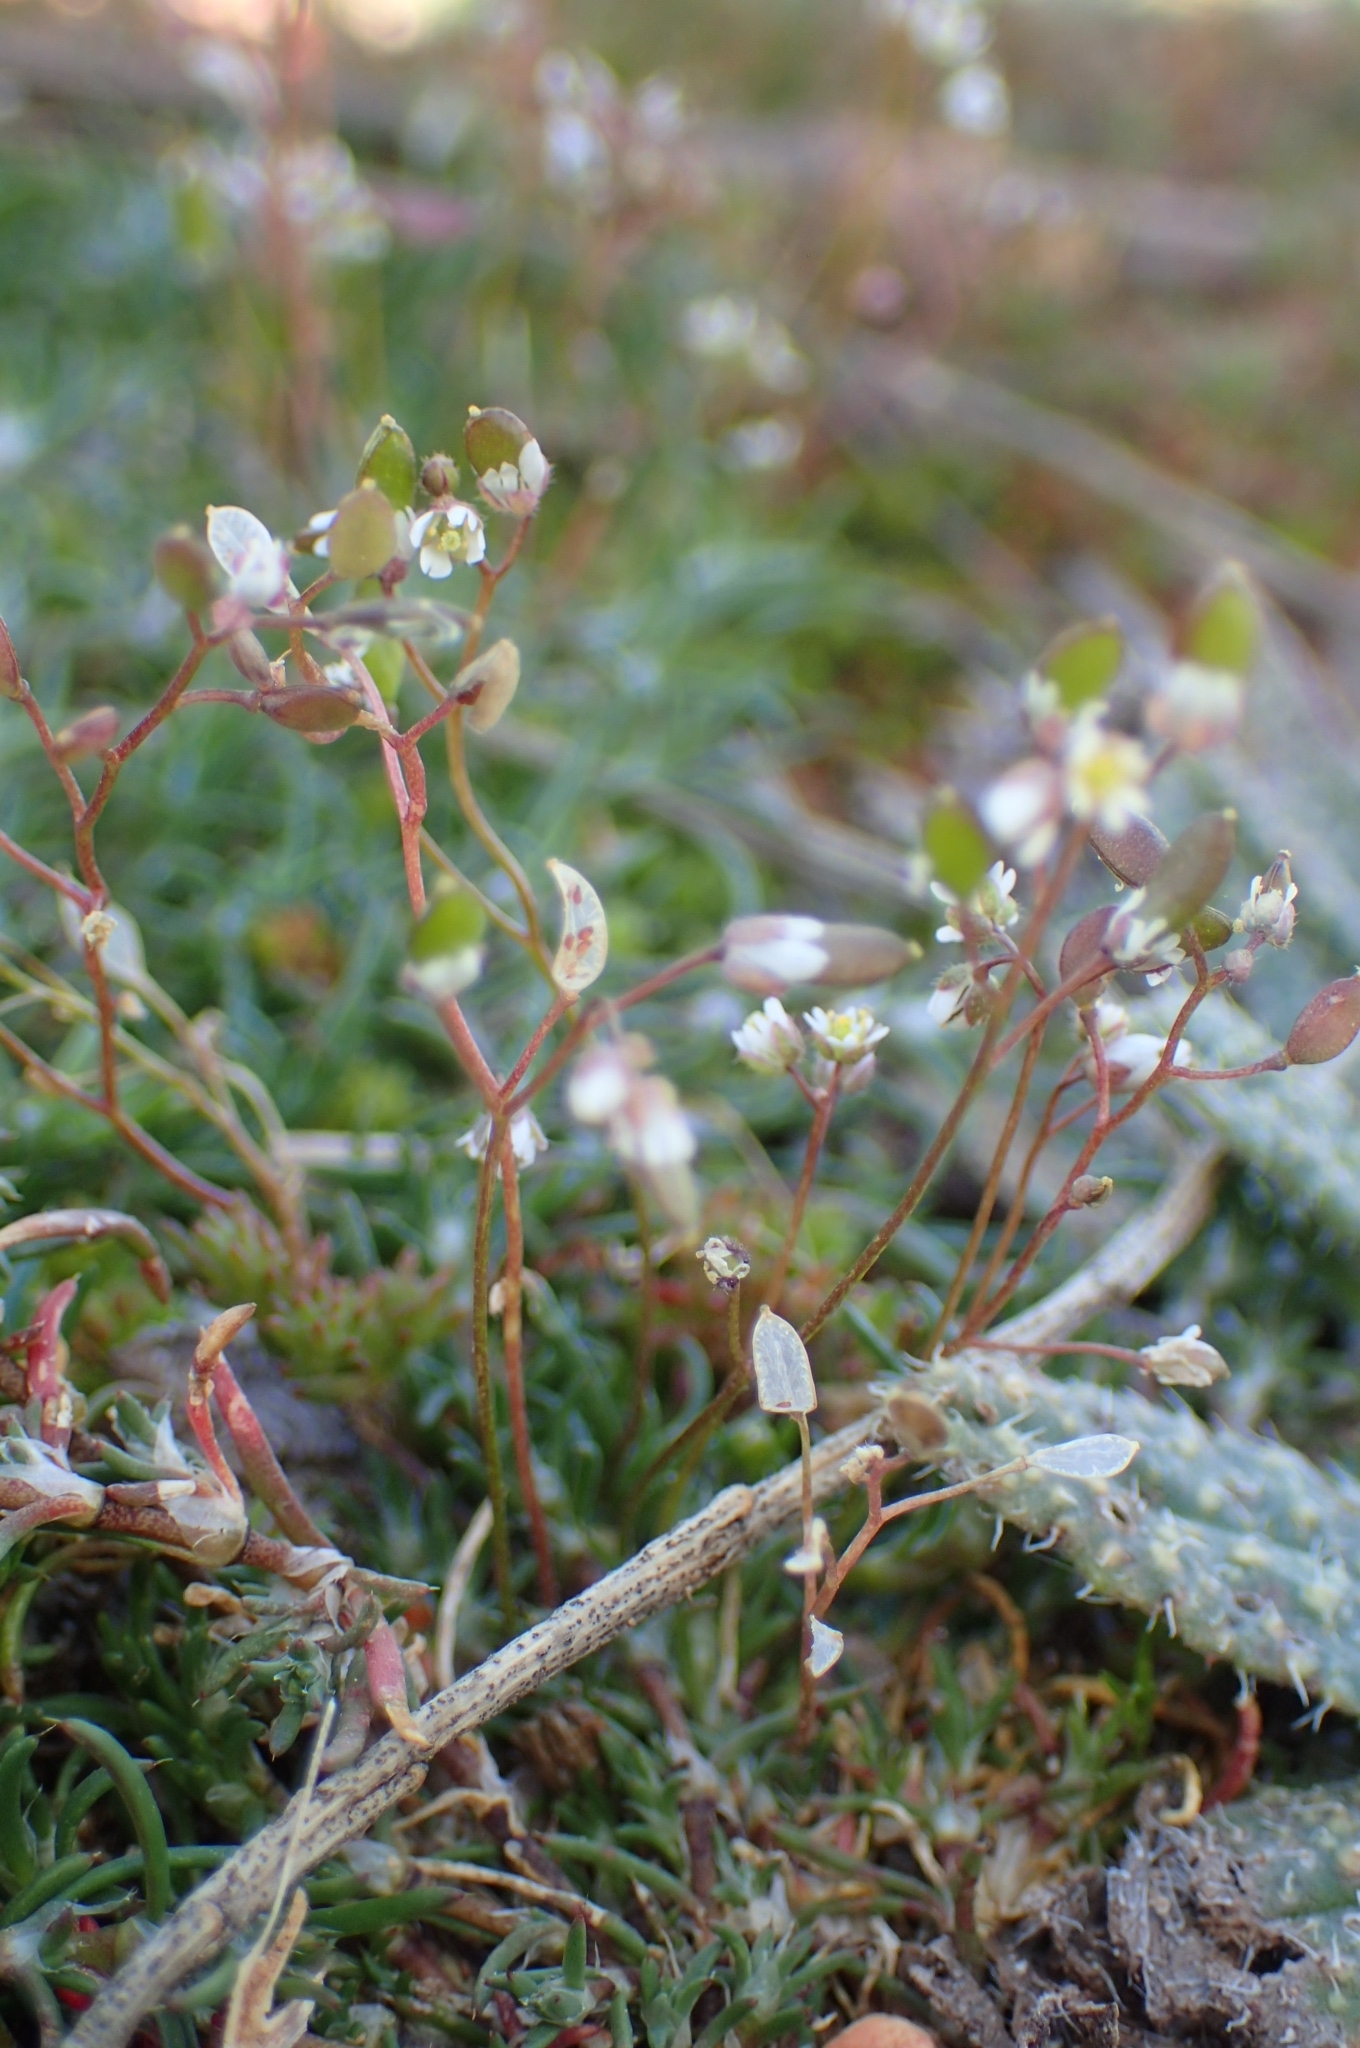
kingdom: Plantae
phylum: Tracheophyta
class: Magnoliopsida
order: Brassicales
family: Brassicaceae
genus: Draba
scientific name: Draba verna
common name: Spring draba
